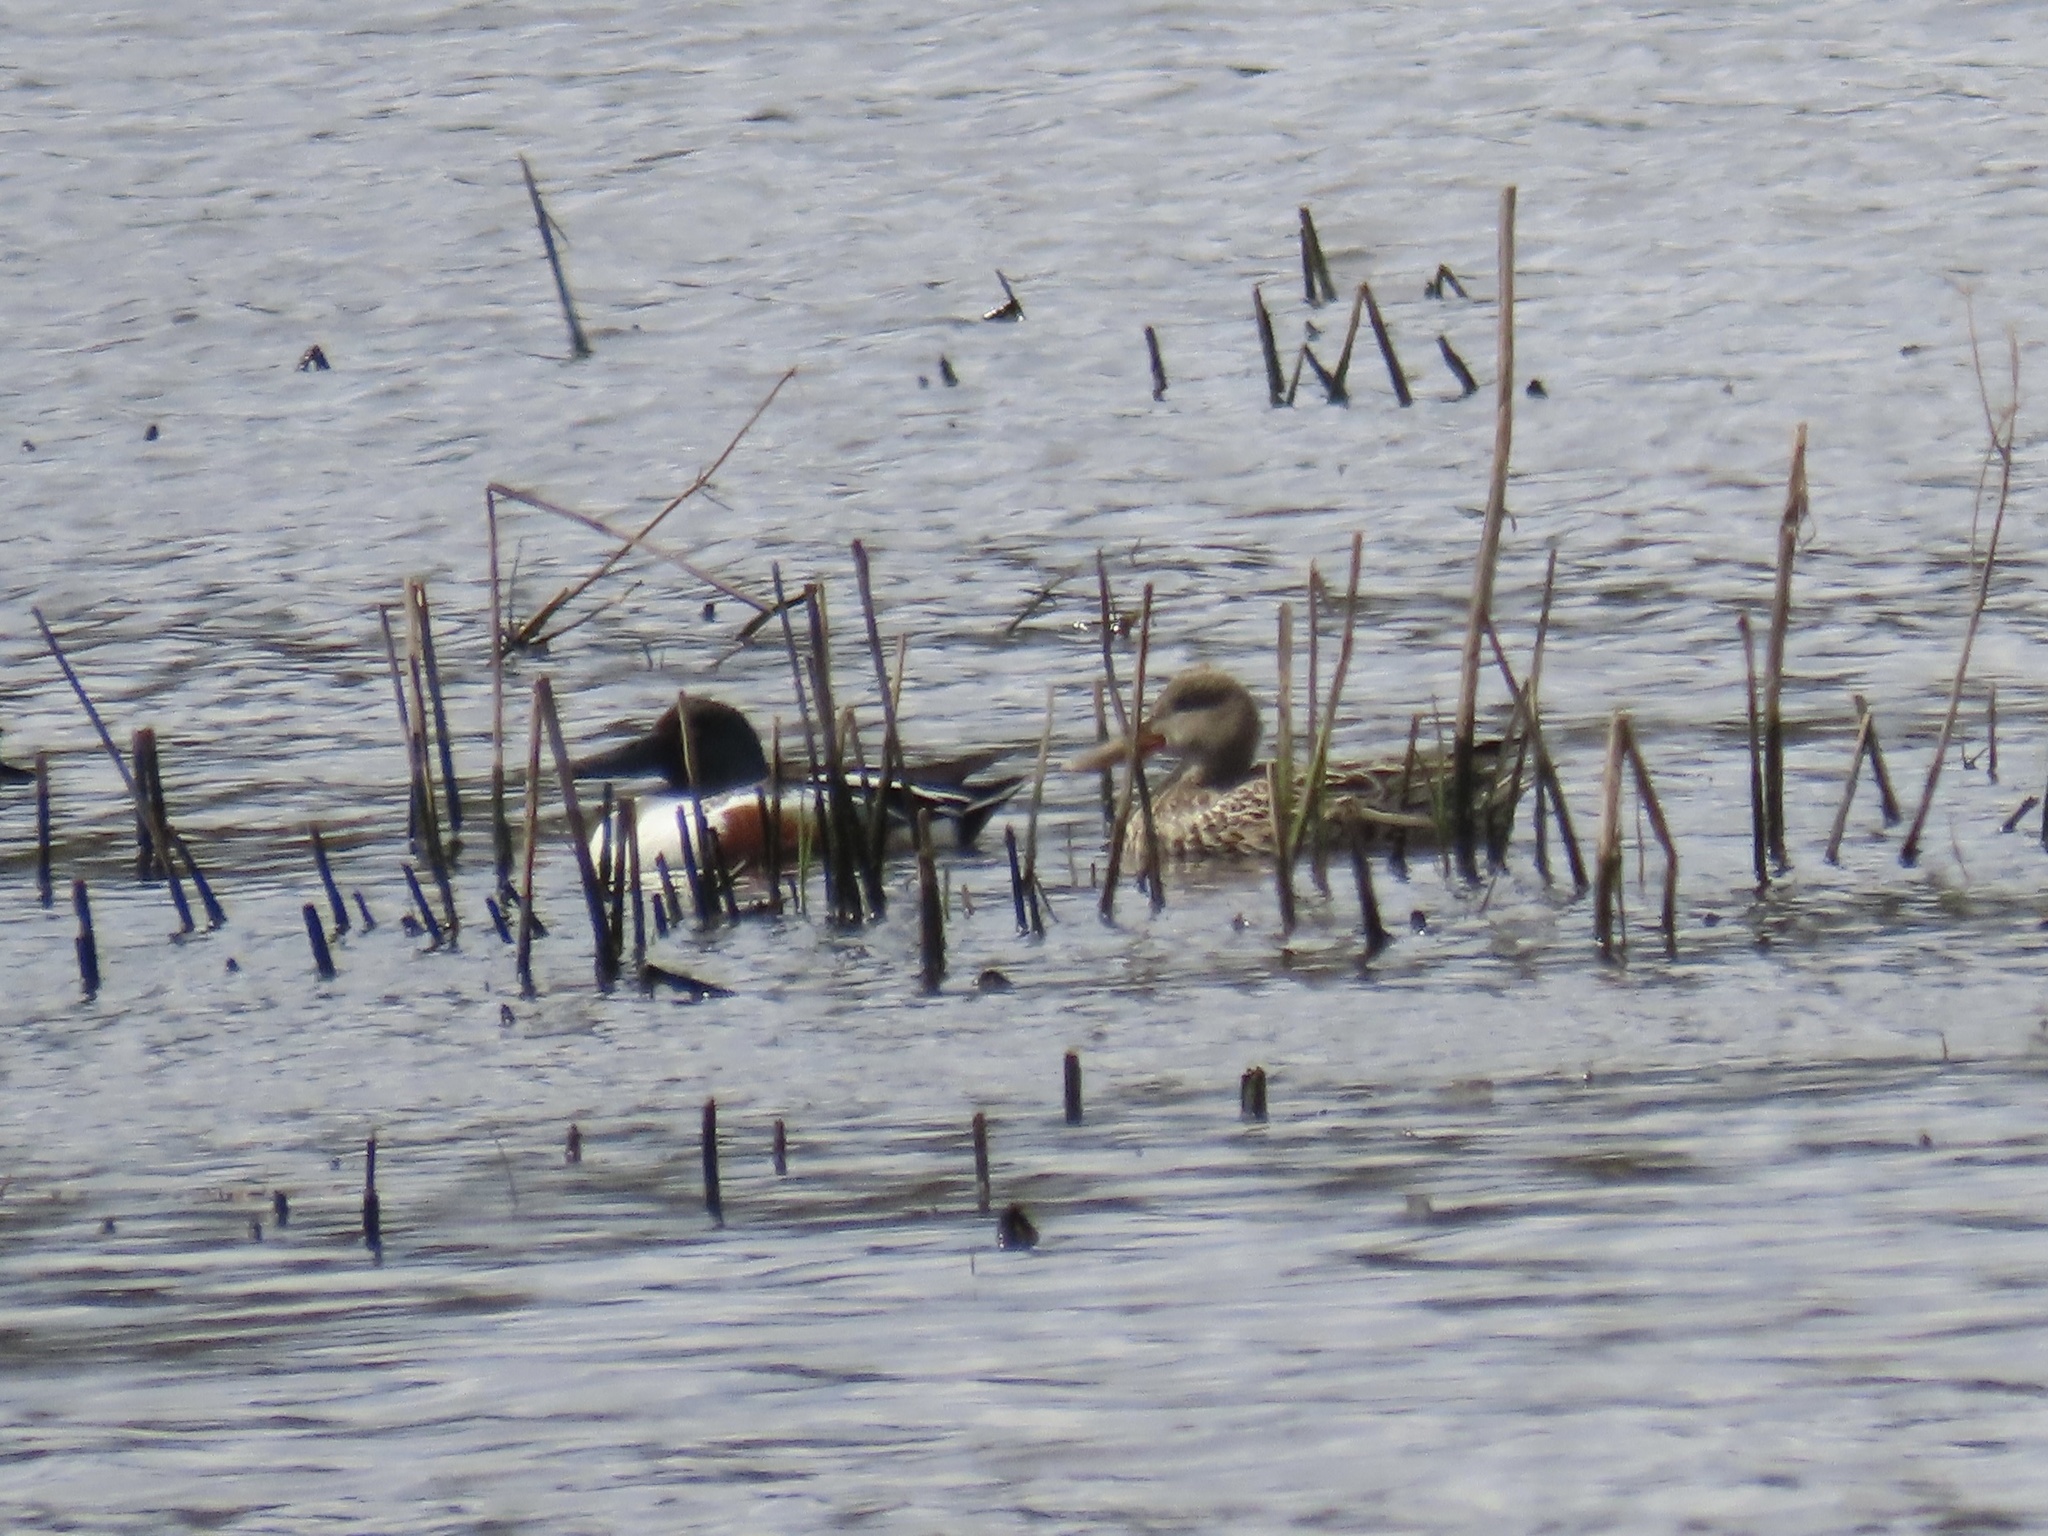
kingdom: Animalia
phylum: Chordata
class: Aves
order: Anseriformes
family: Anatidae
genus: Spatula
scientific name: Spatula clypeata
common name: Northern shoveler
